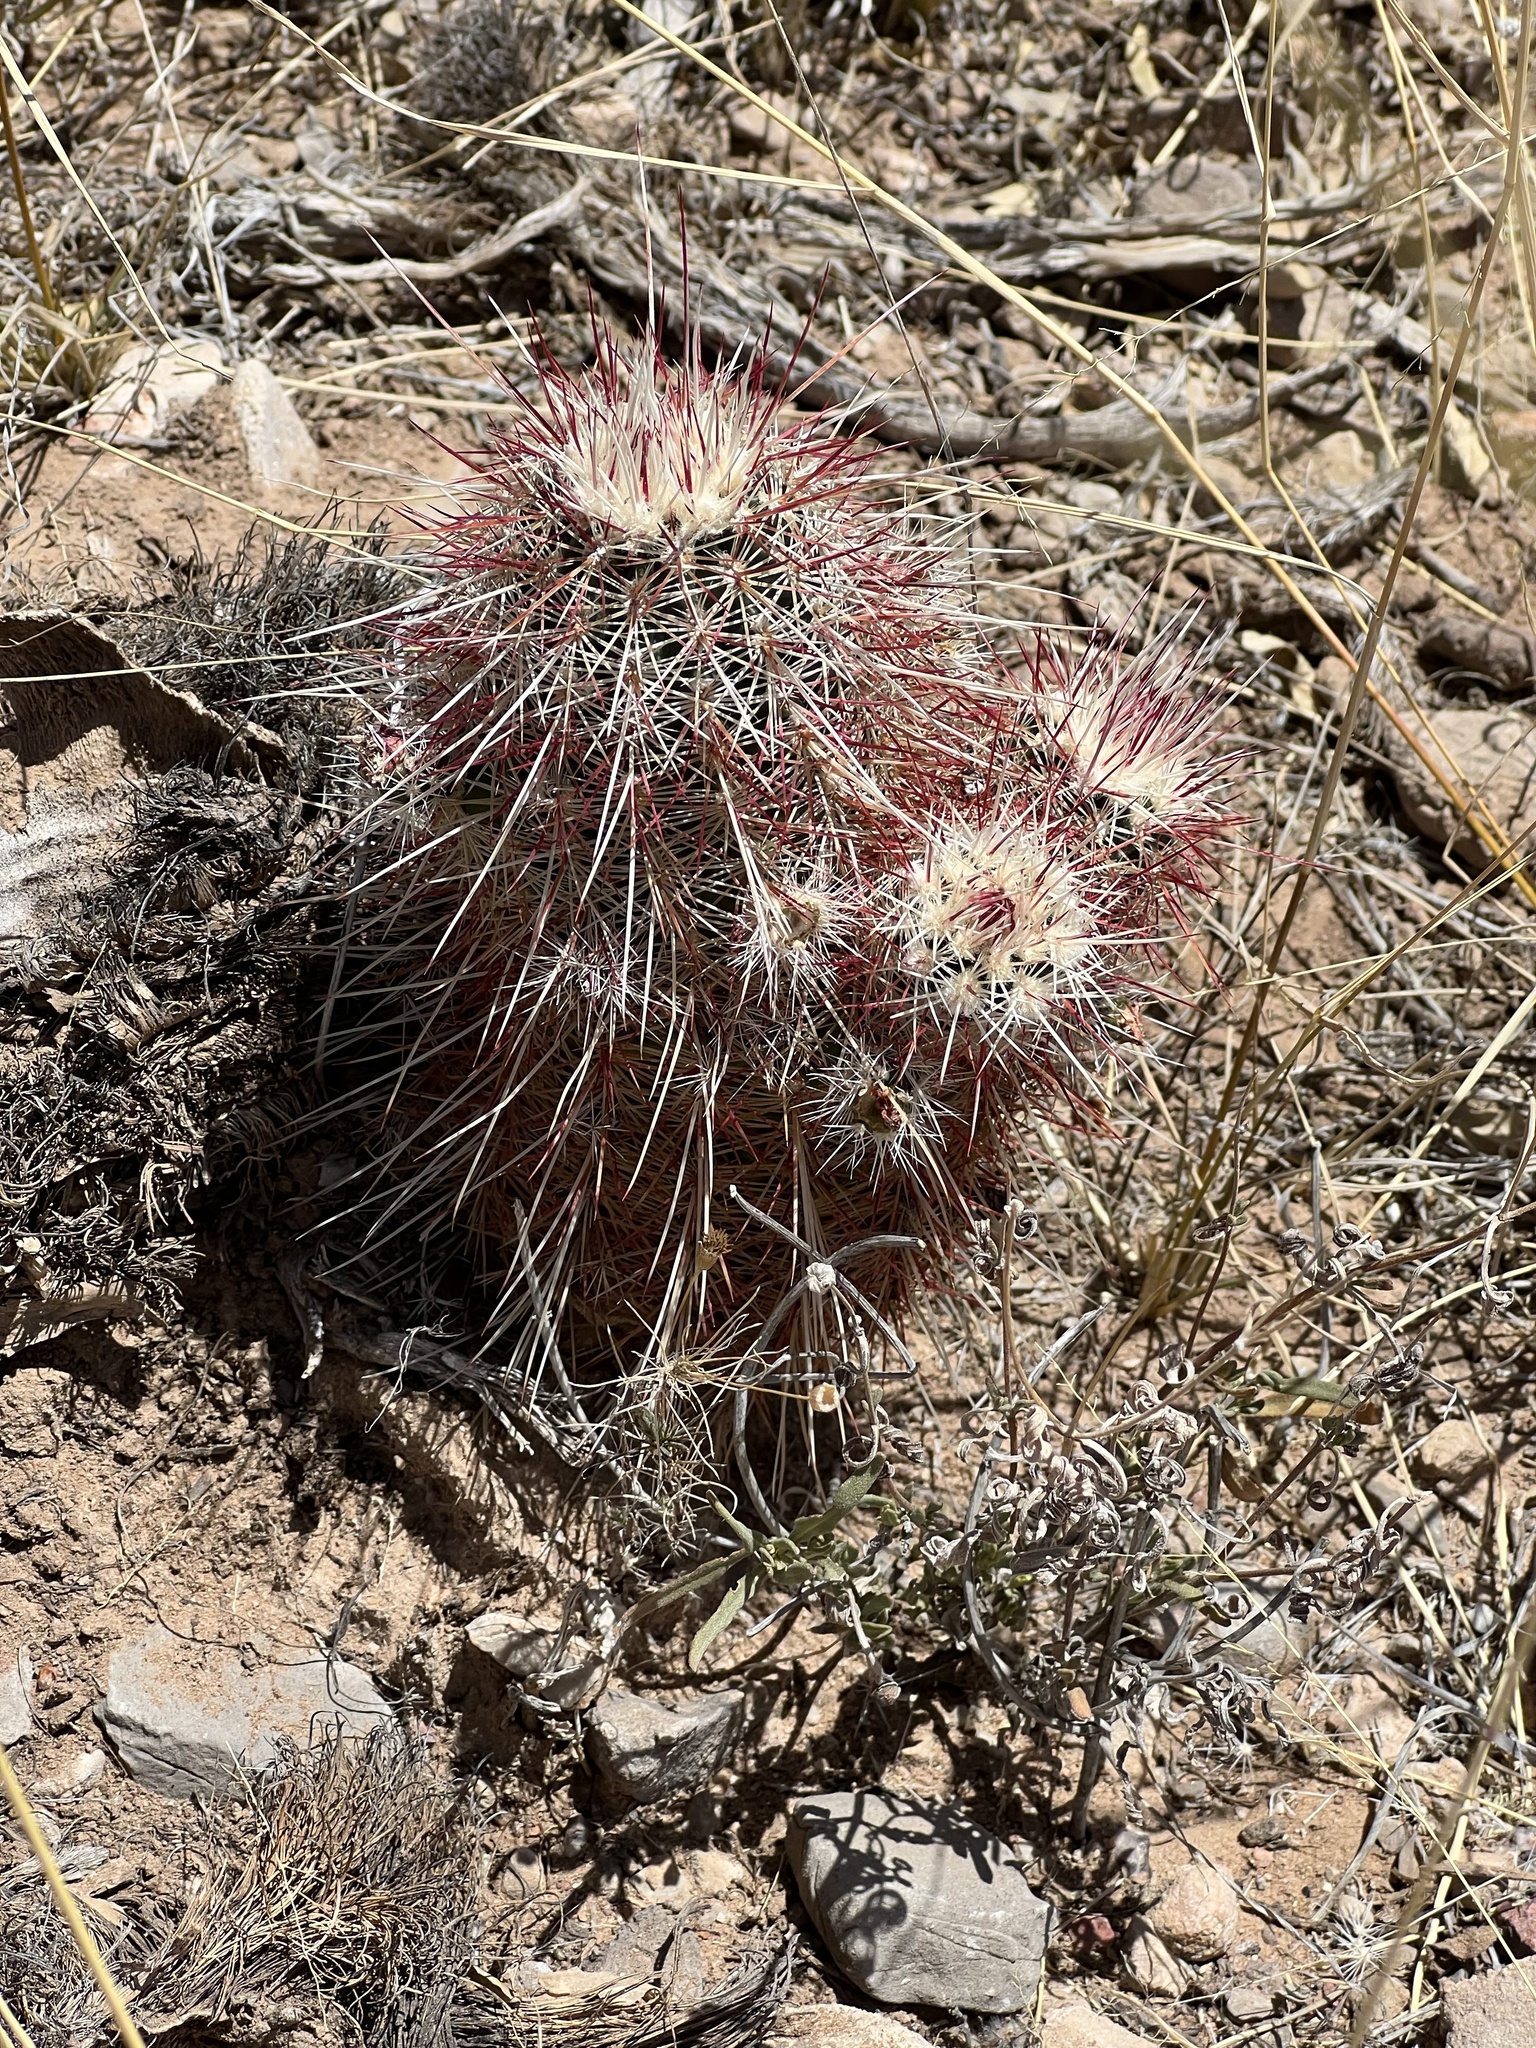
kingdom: Plantae
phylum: Tracheophyta
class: Magnoliopsida
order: Caryophyllales
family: Cactaceae
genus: Echinocereus
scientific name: Echinocereus viridiflorus
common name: Nylon hedgehog cactus
